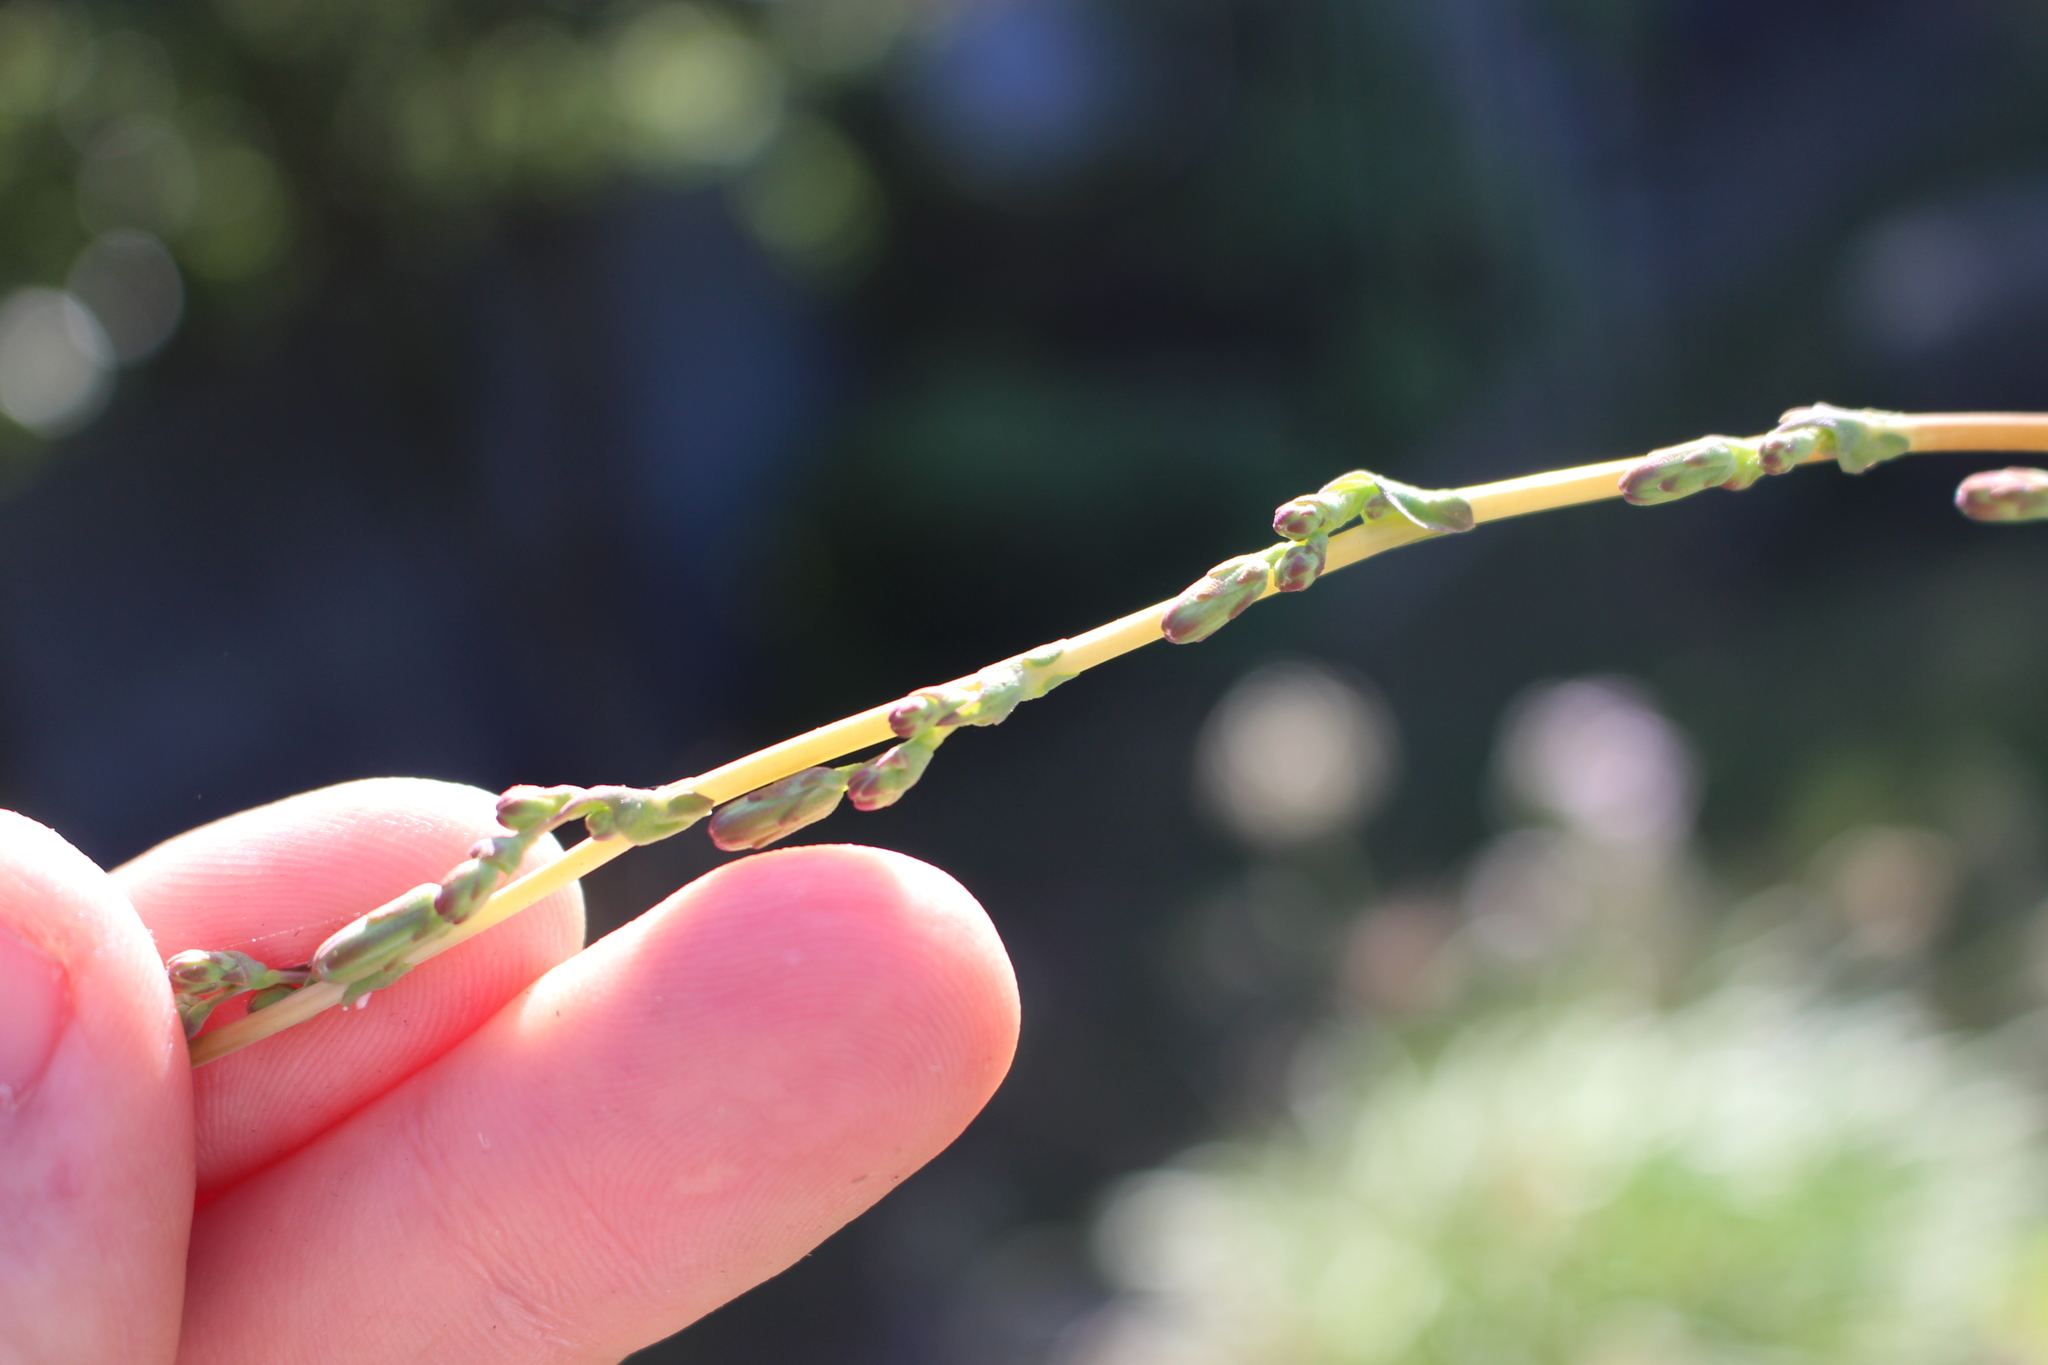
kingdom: Plantae
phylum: Tracheophyta
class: Magnoliopsida
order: Asterales
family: Asteraceae
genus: Lactuca
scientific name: Lactuca serriola
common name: Prickly lettuce
